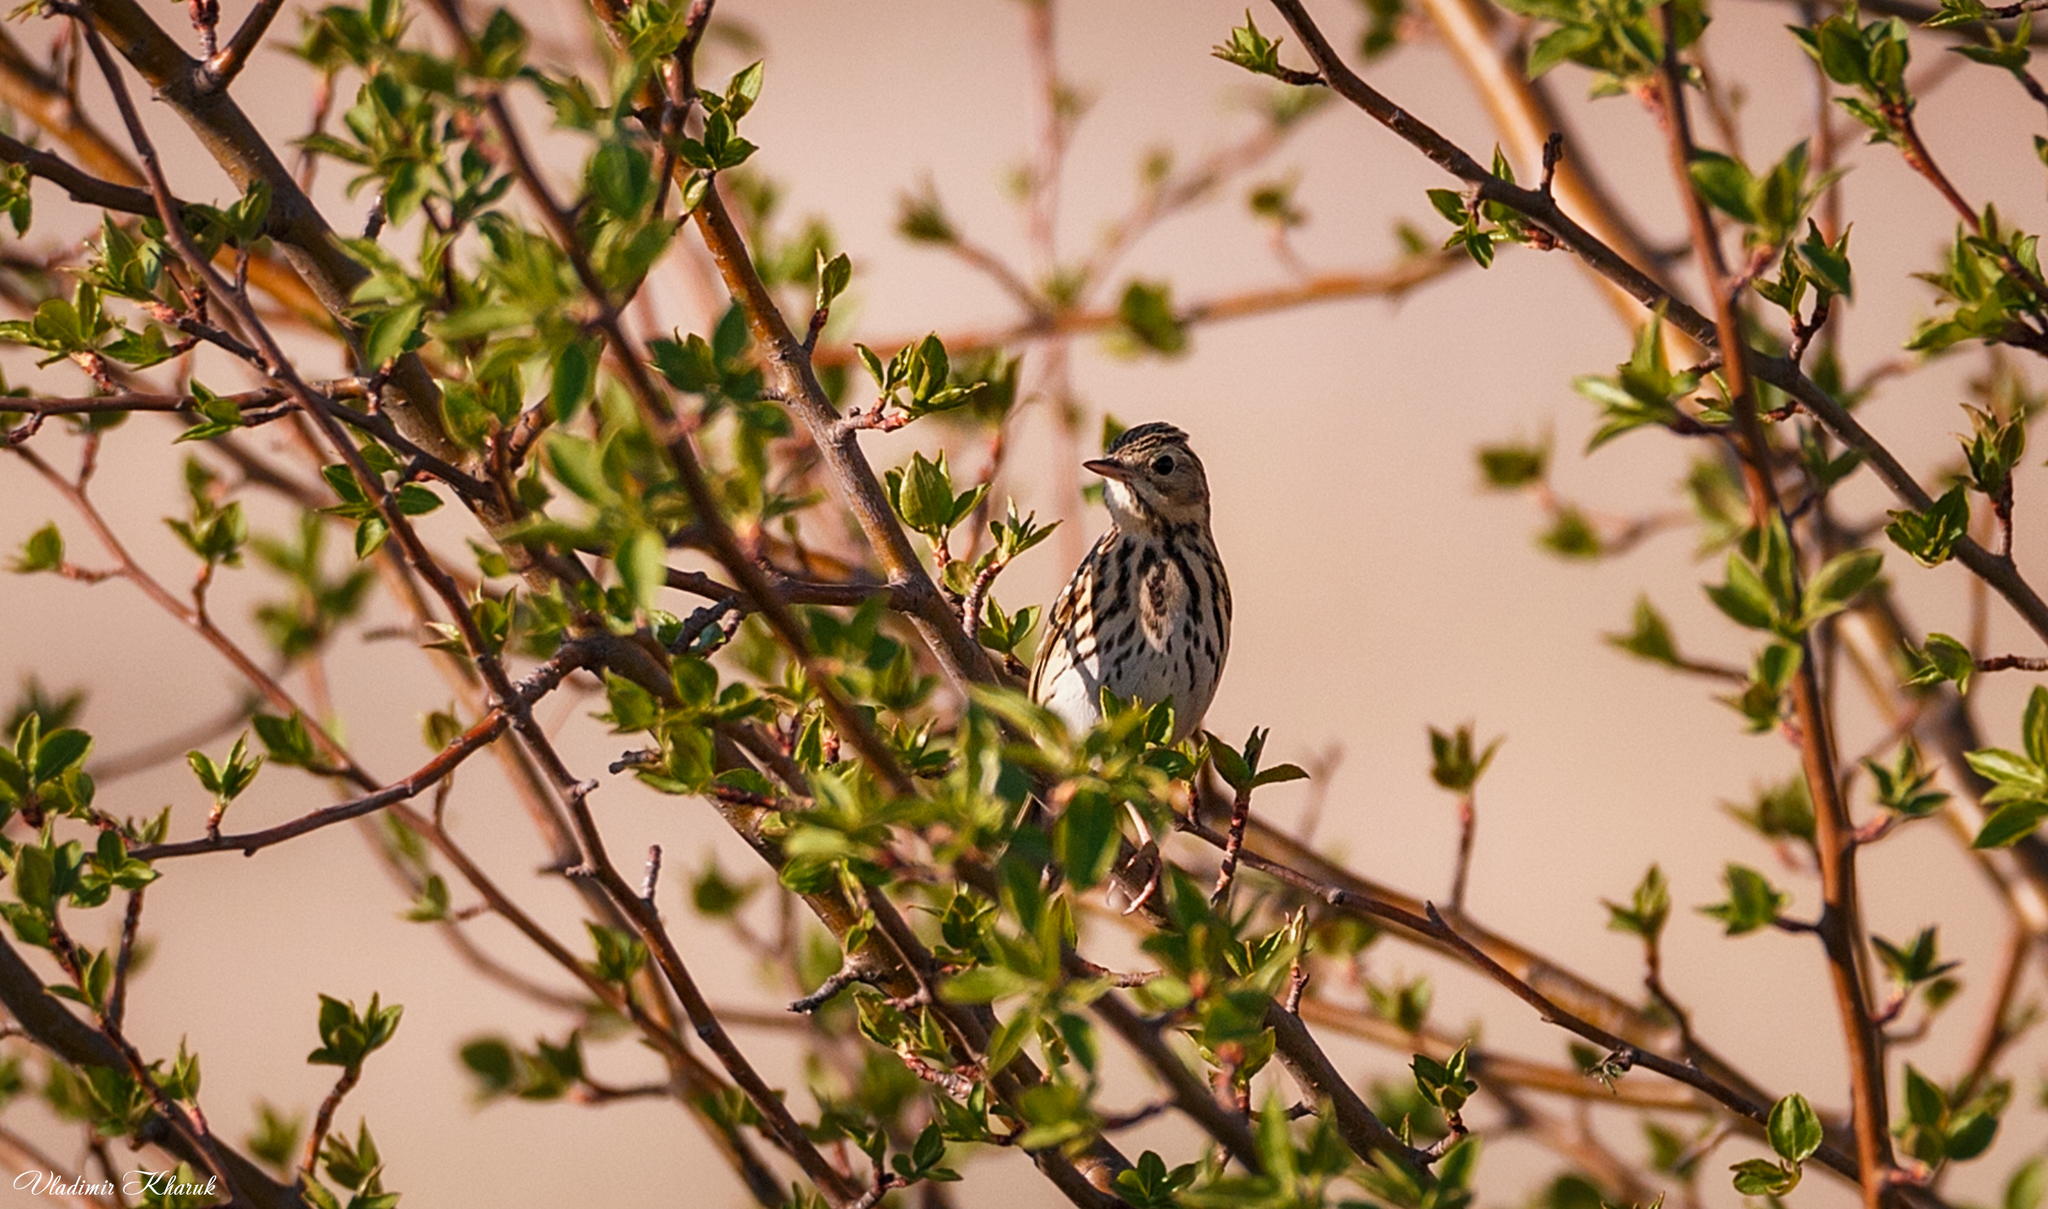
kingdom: Animalia
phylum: Chordata
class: Aves
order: Passeriformes
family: Motacillidae
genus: Anthus
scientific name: Anthus trivialis
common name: Tree pipit
